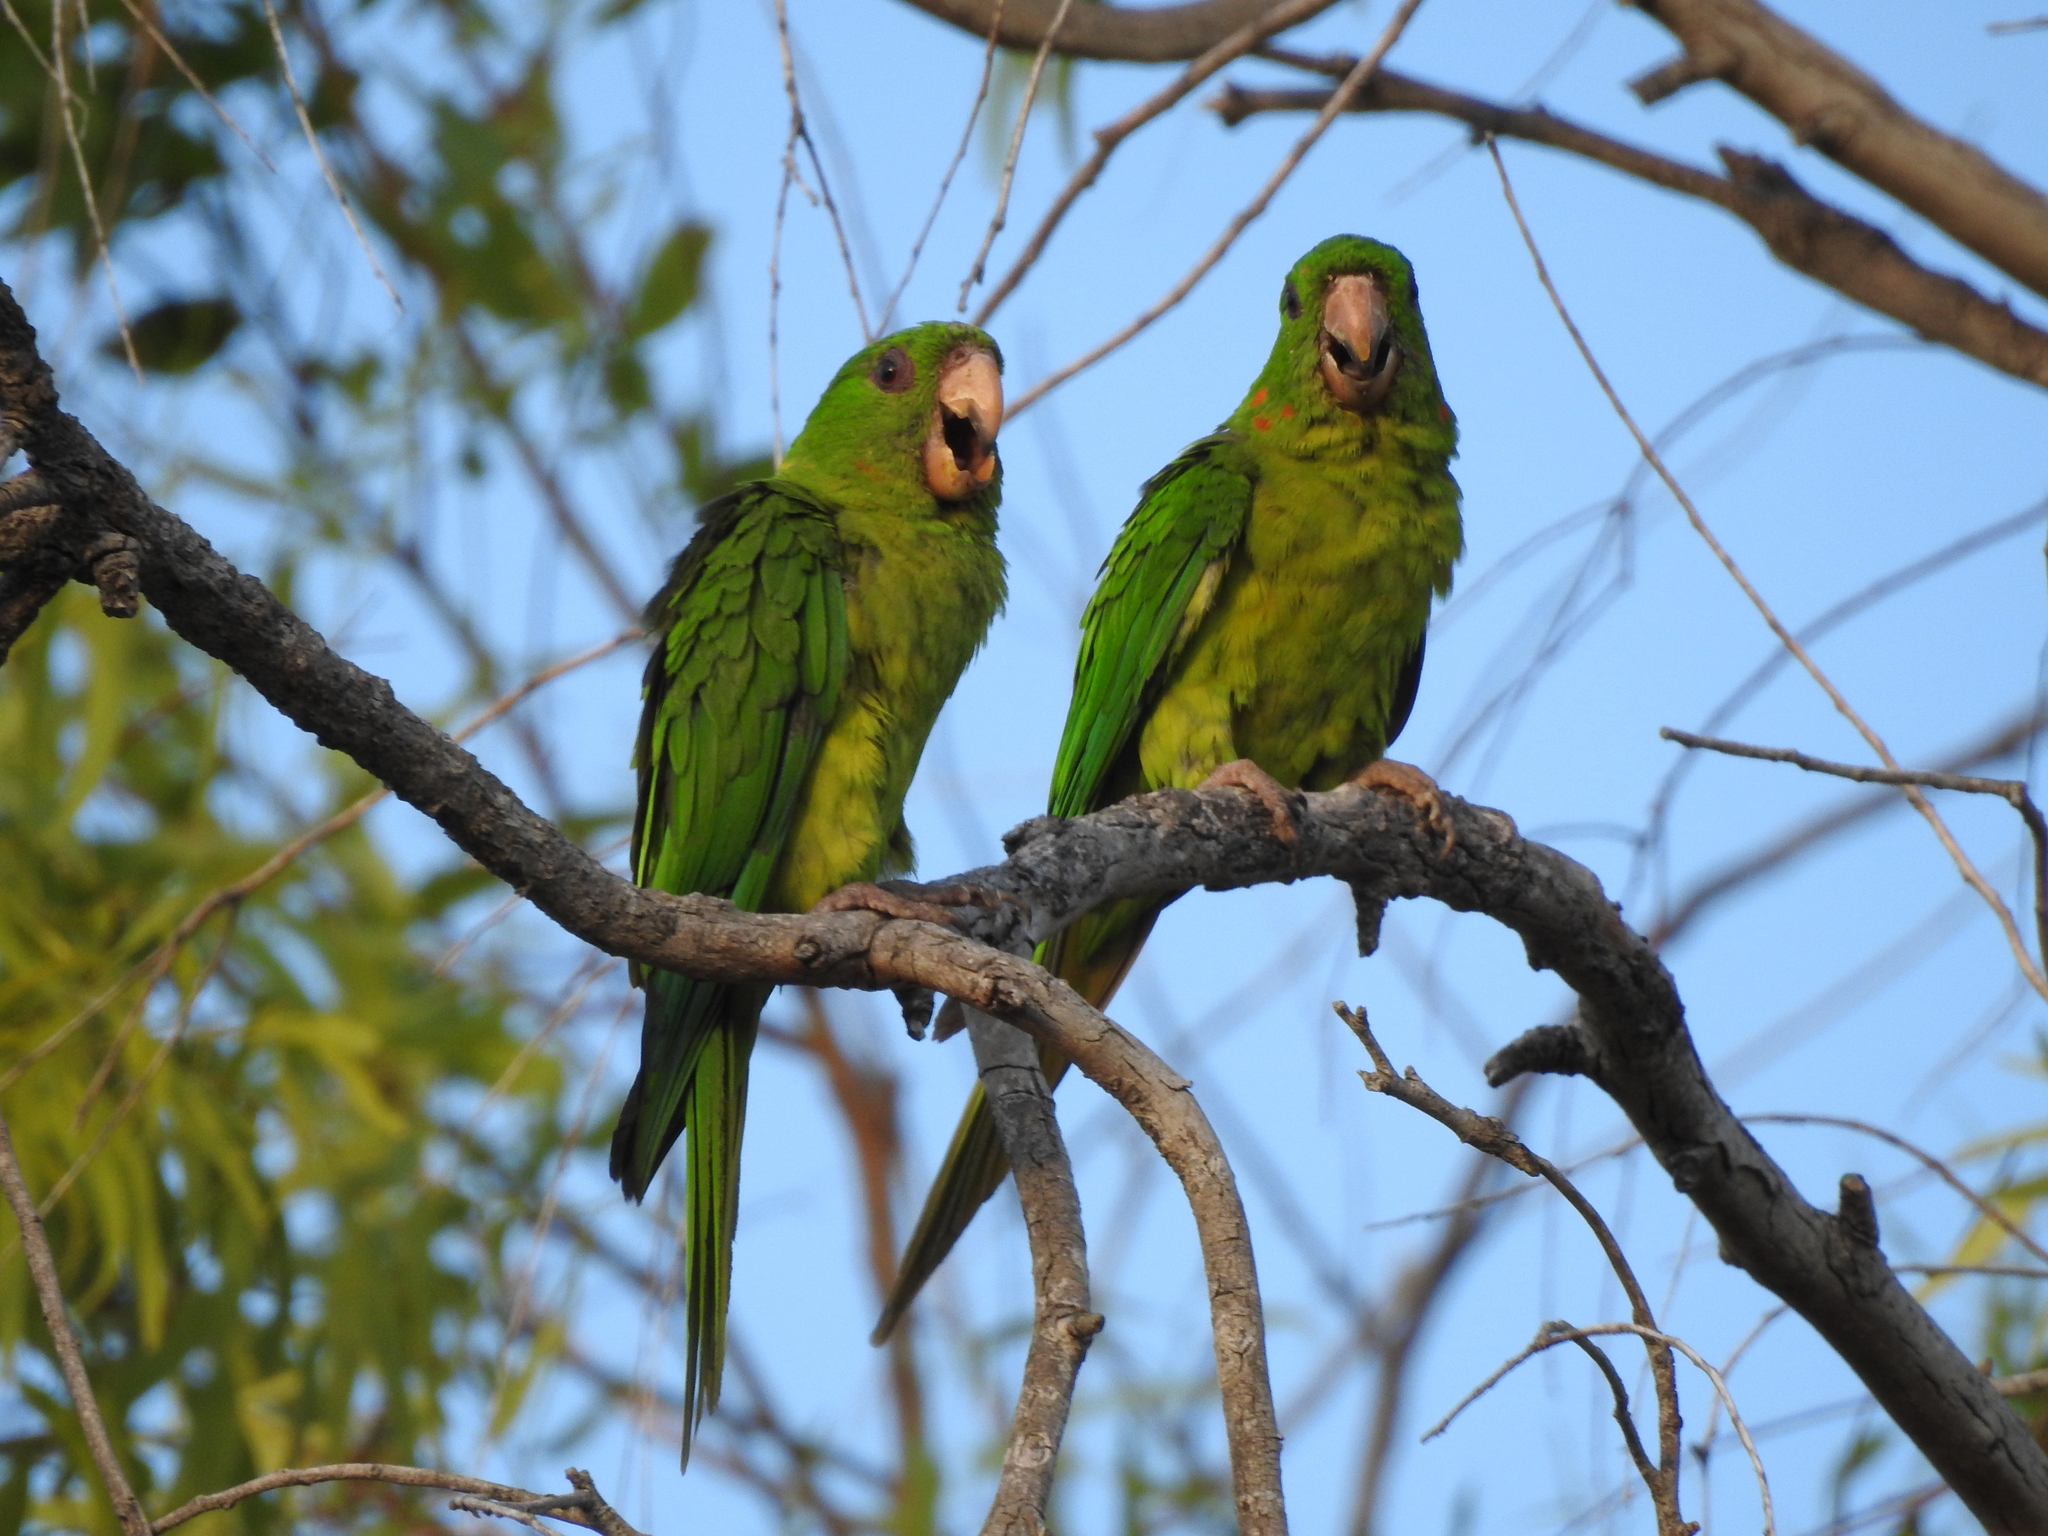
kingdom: Animalia
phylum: Chordata
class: Aves
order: Psittaciformes
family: Psittacidae
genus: Aratinga
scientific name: Aratinga holochlora
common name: Green parakeet
